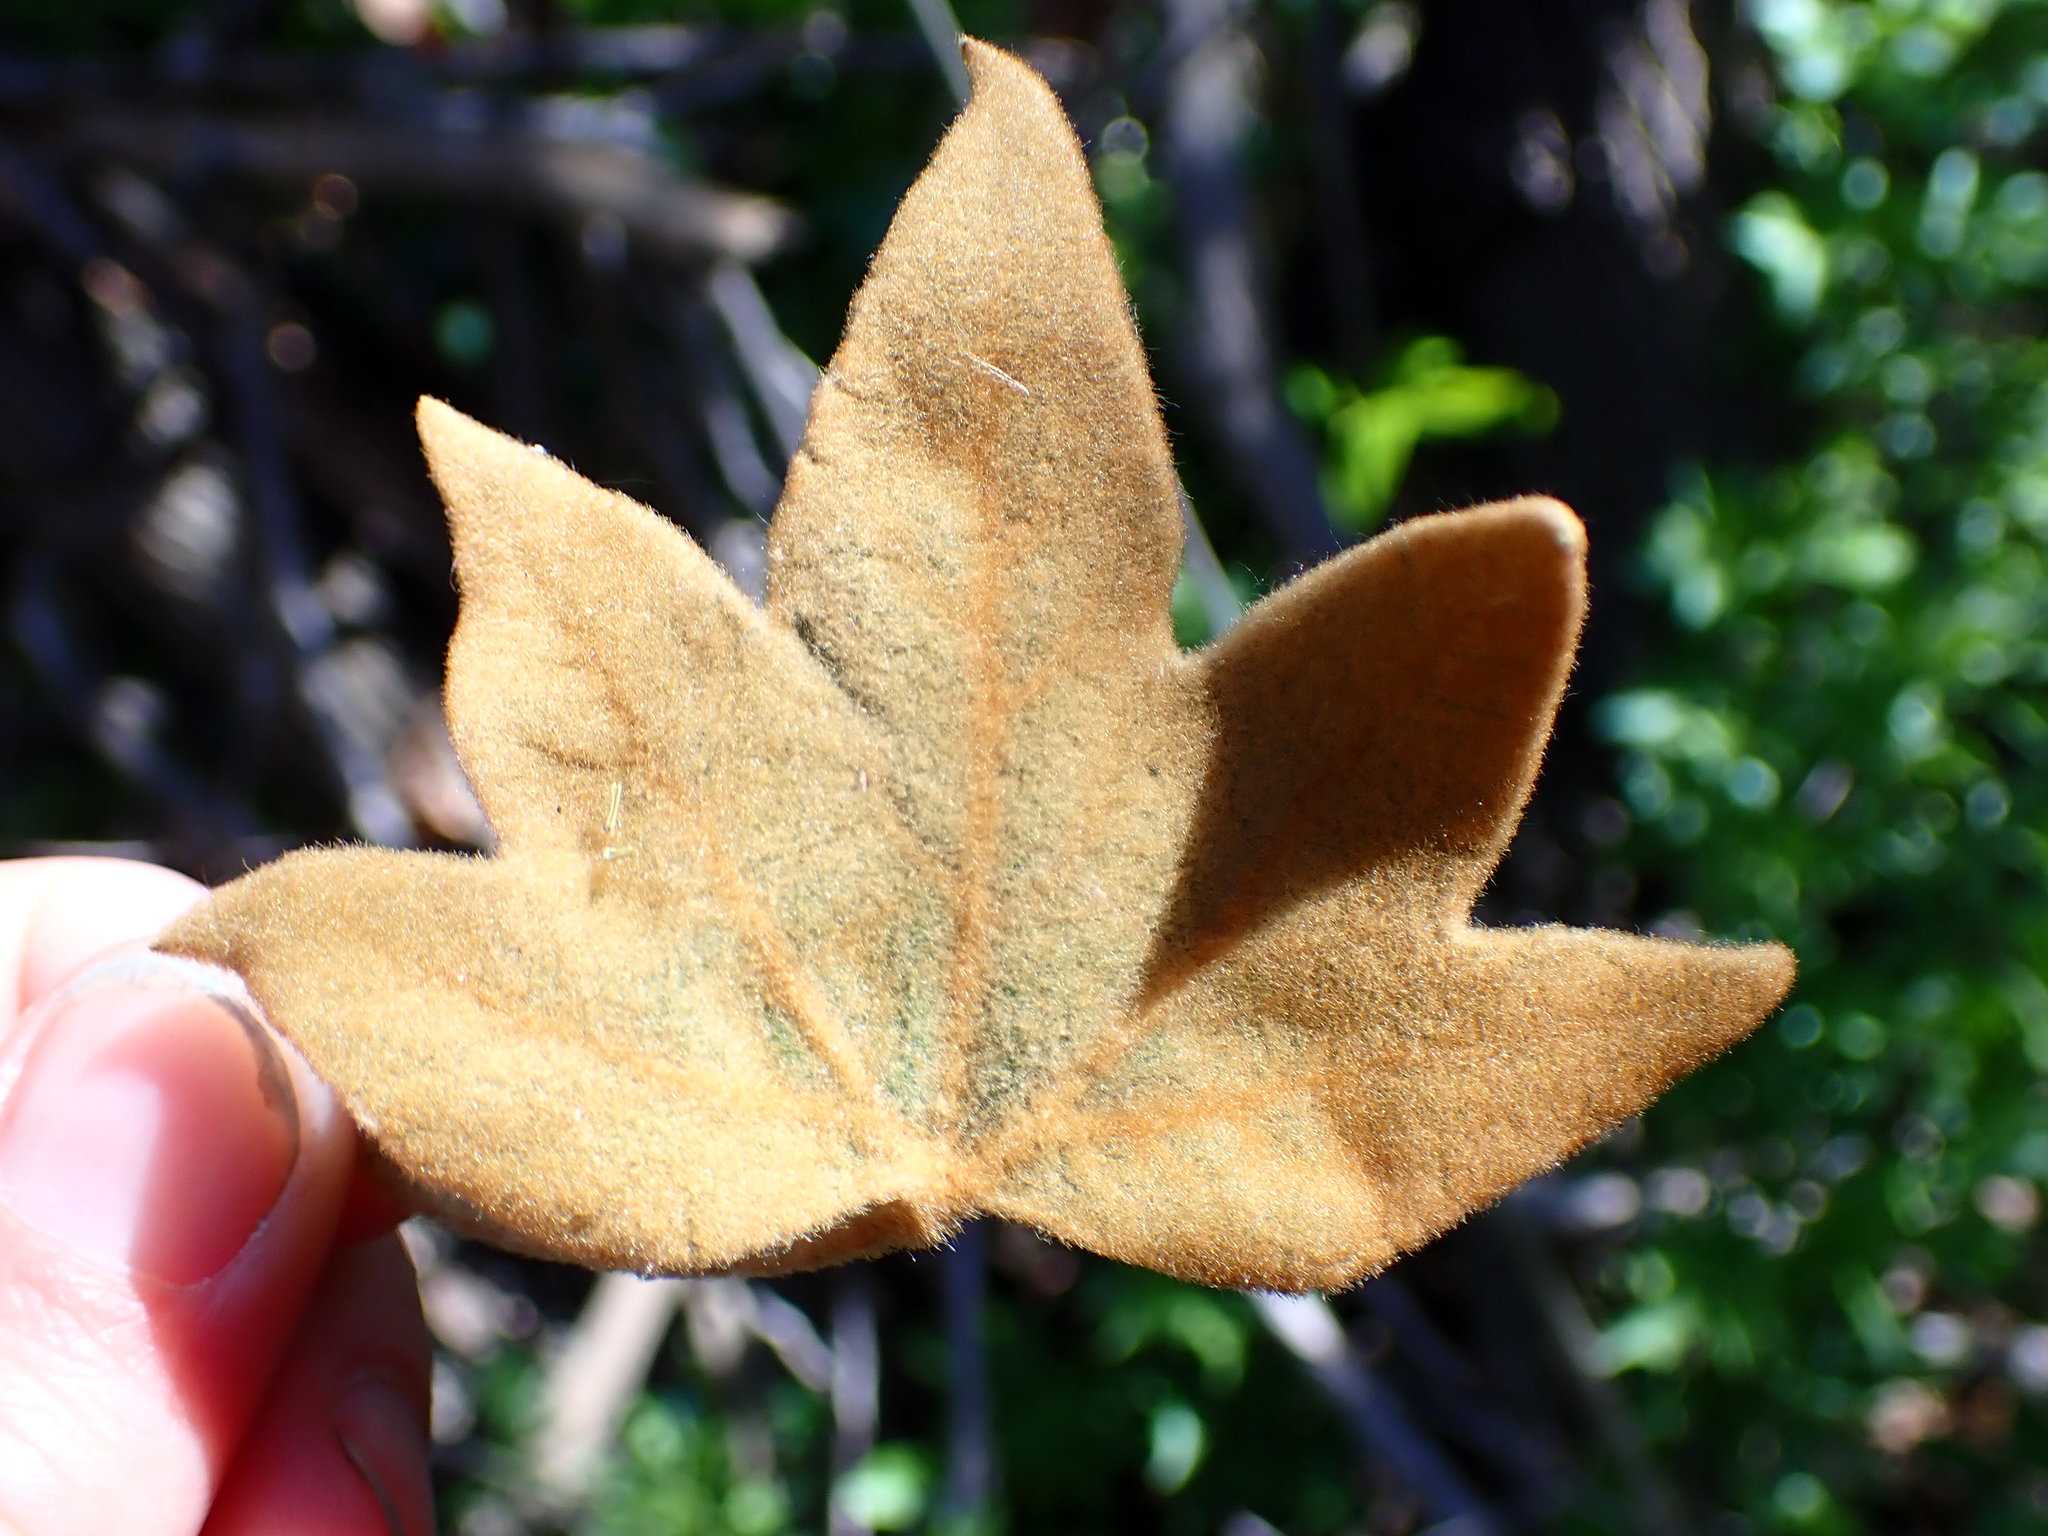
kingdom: Plantae
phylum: Tracheophyta
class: Magnoliopsida
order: Proteales
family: Platanaceae
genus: Platanus
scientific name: Platanus racemosa
